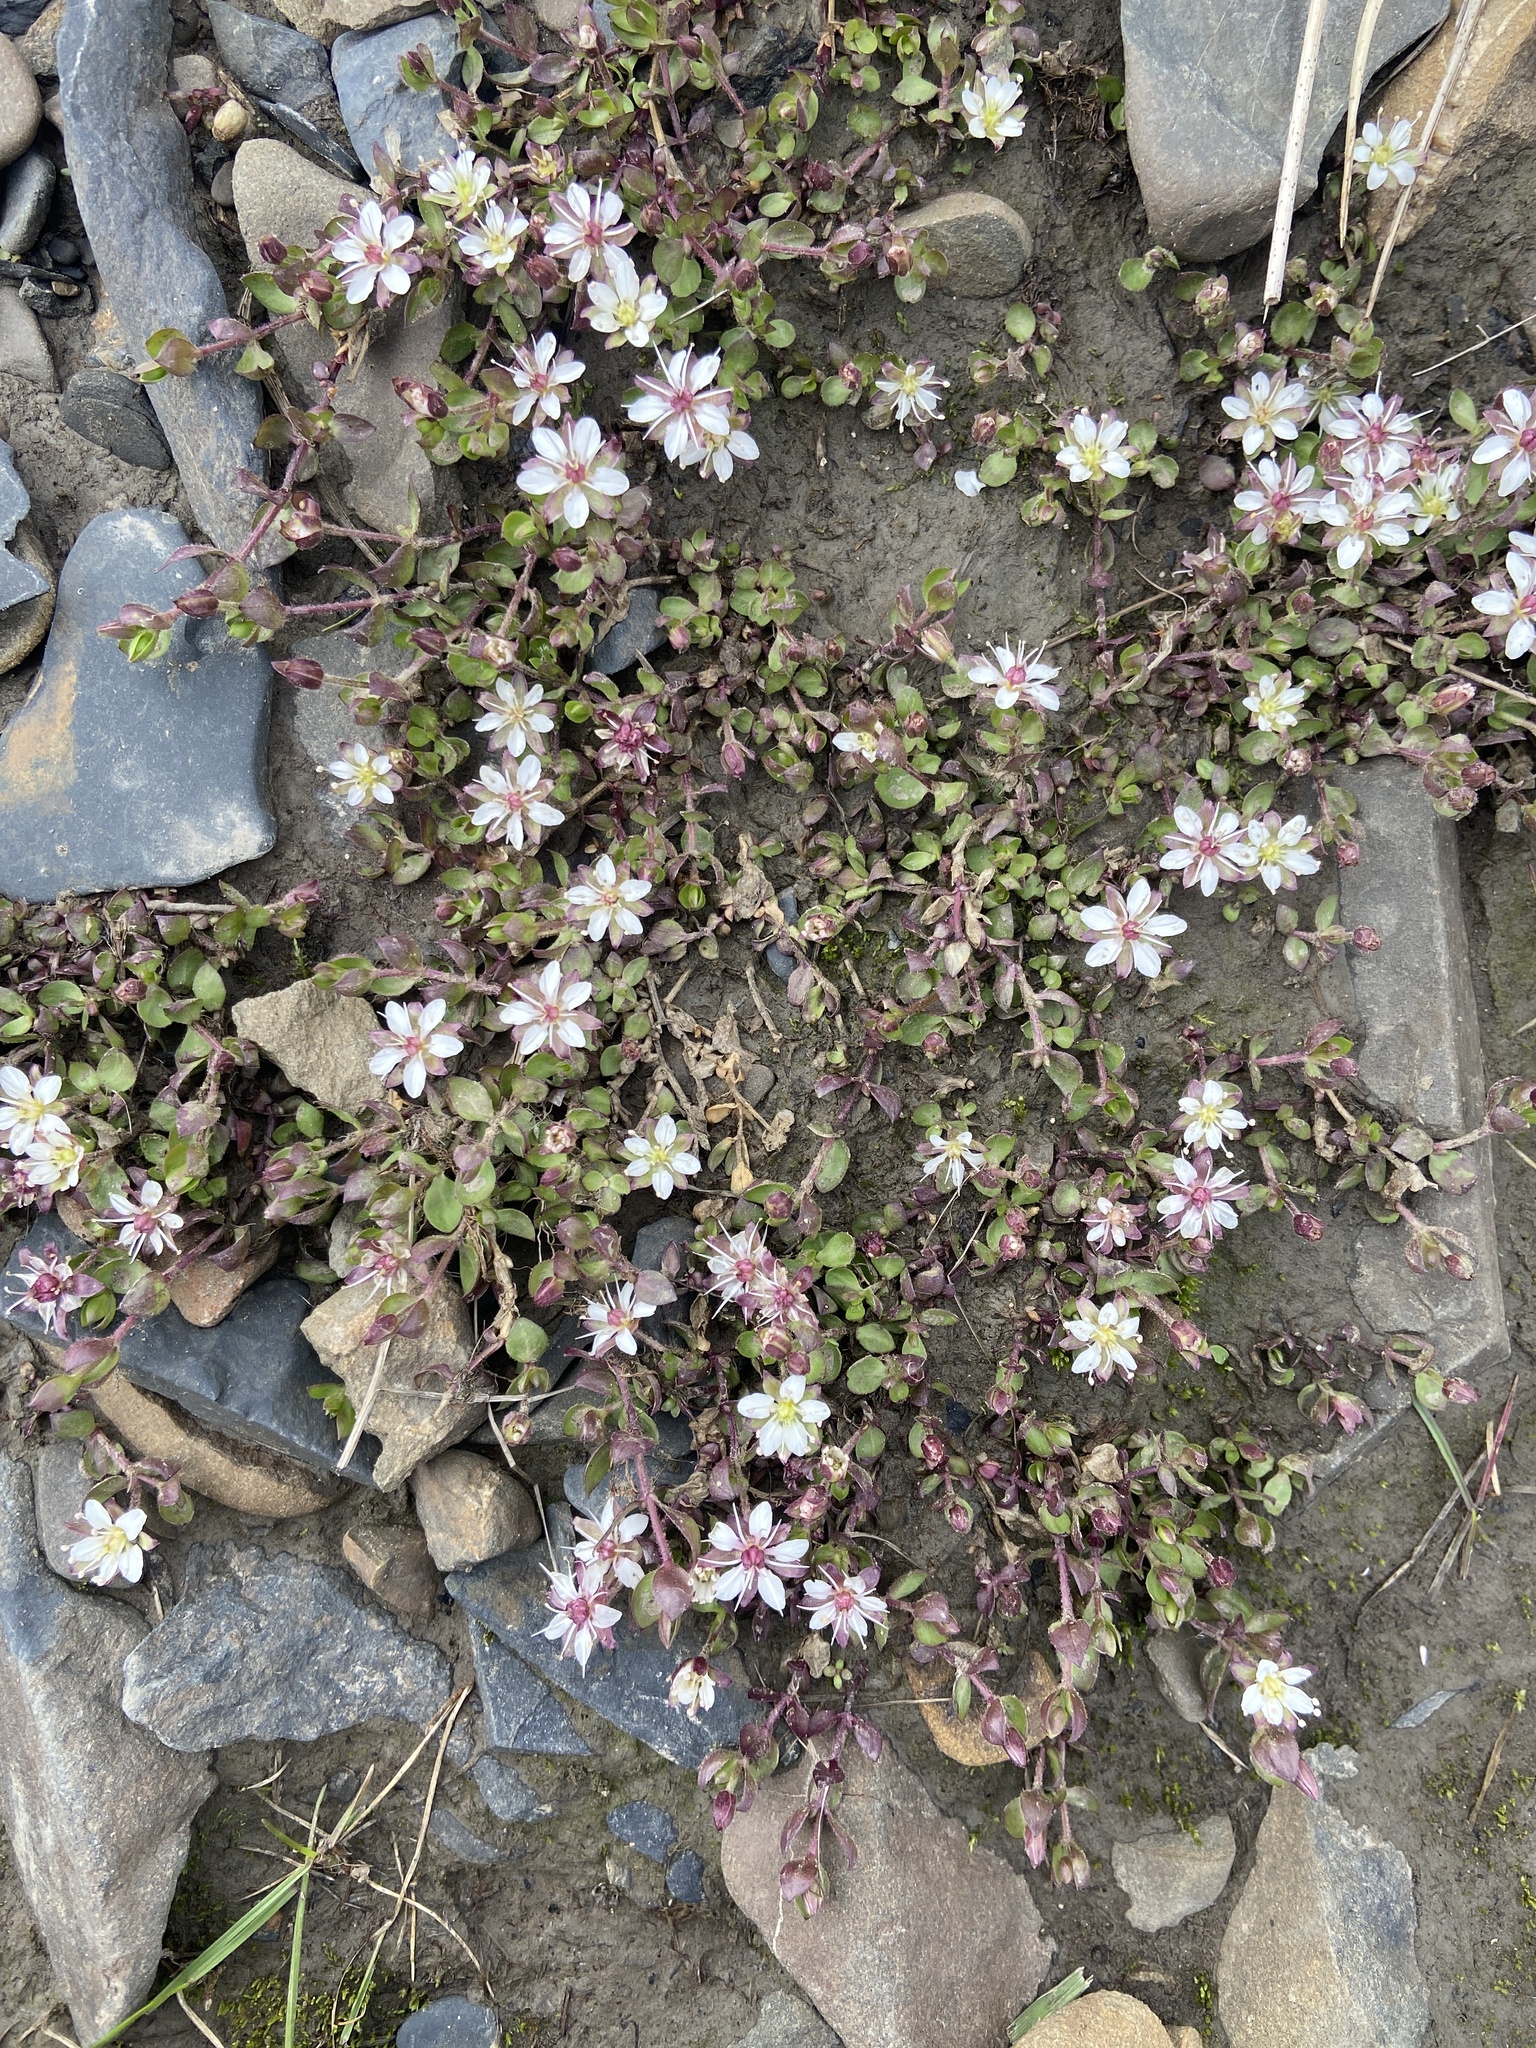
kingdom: Plantae
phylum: Tracheophyta
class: Magnoliopsida
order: Caryophyllales
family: Caryophyllaceae
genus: Wilhelmsia
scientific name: Wilhelmsia physodes
